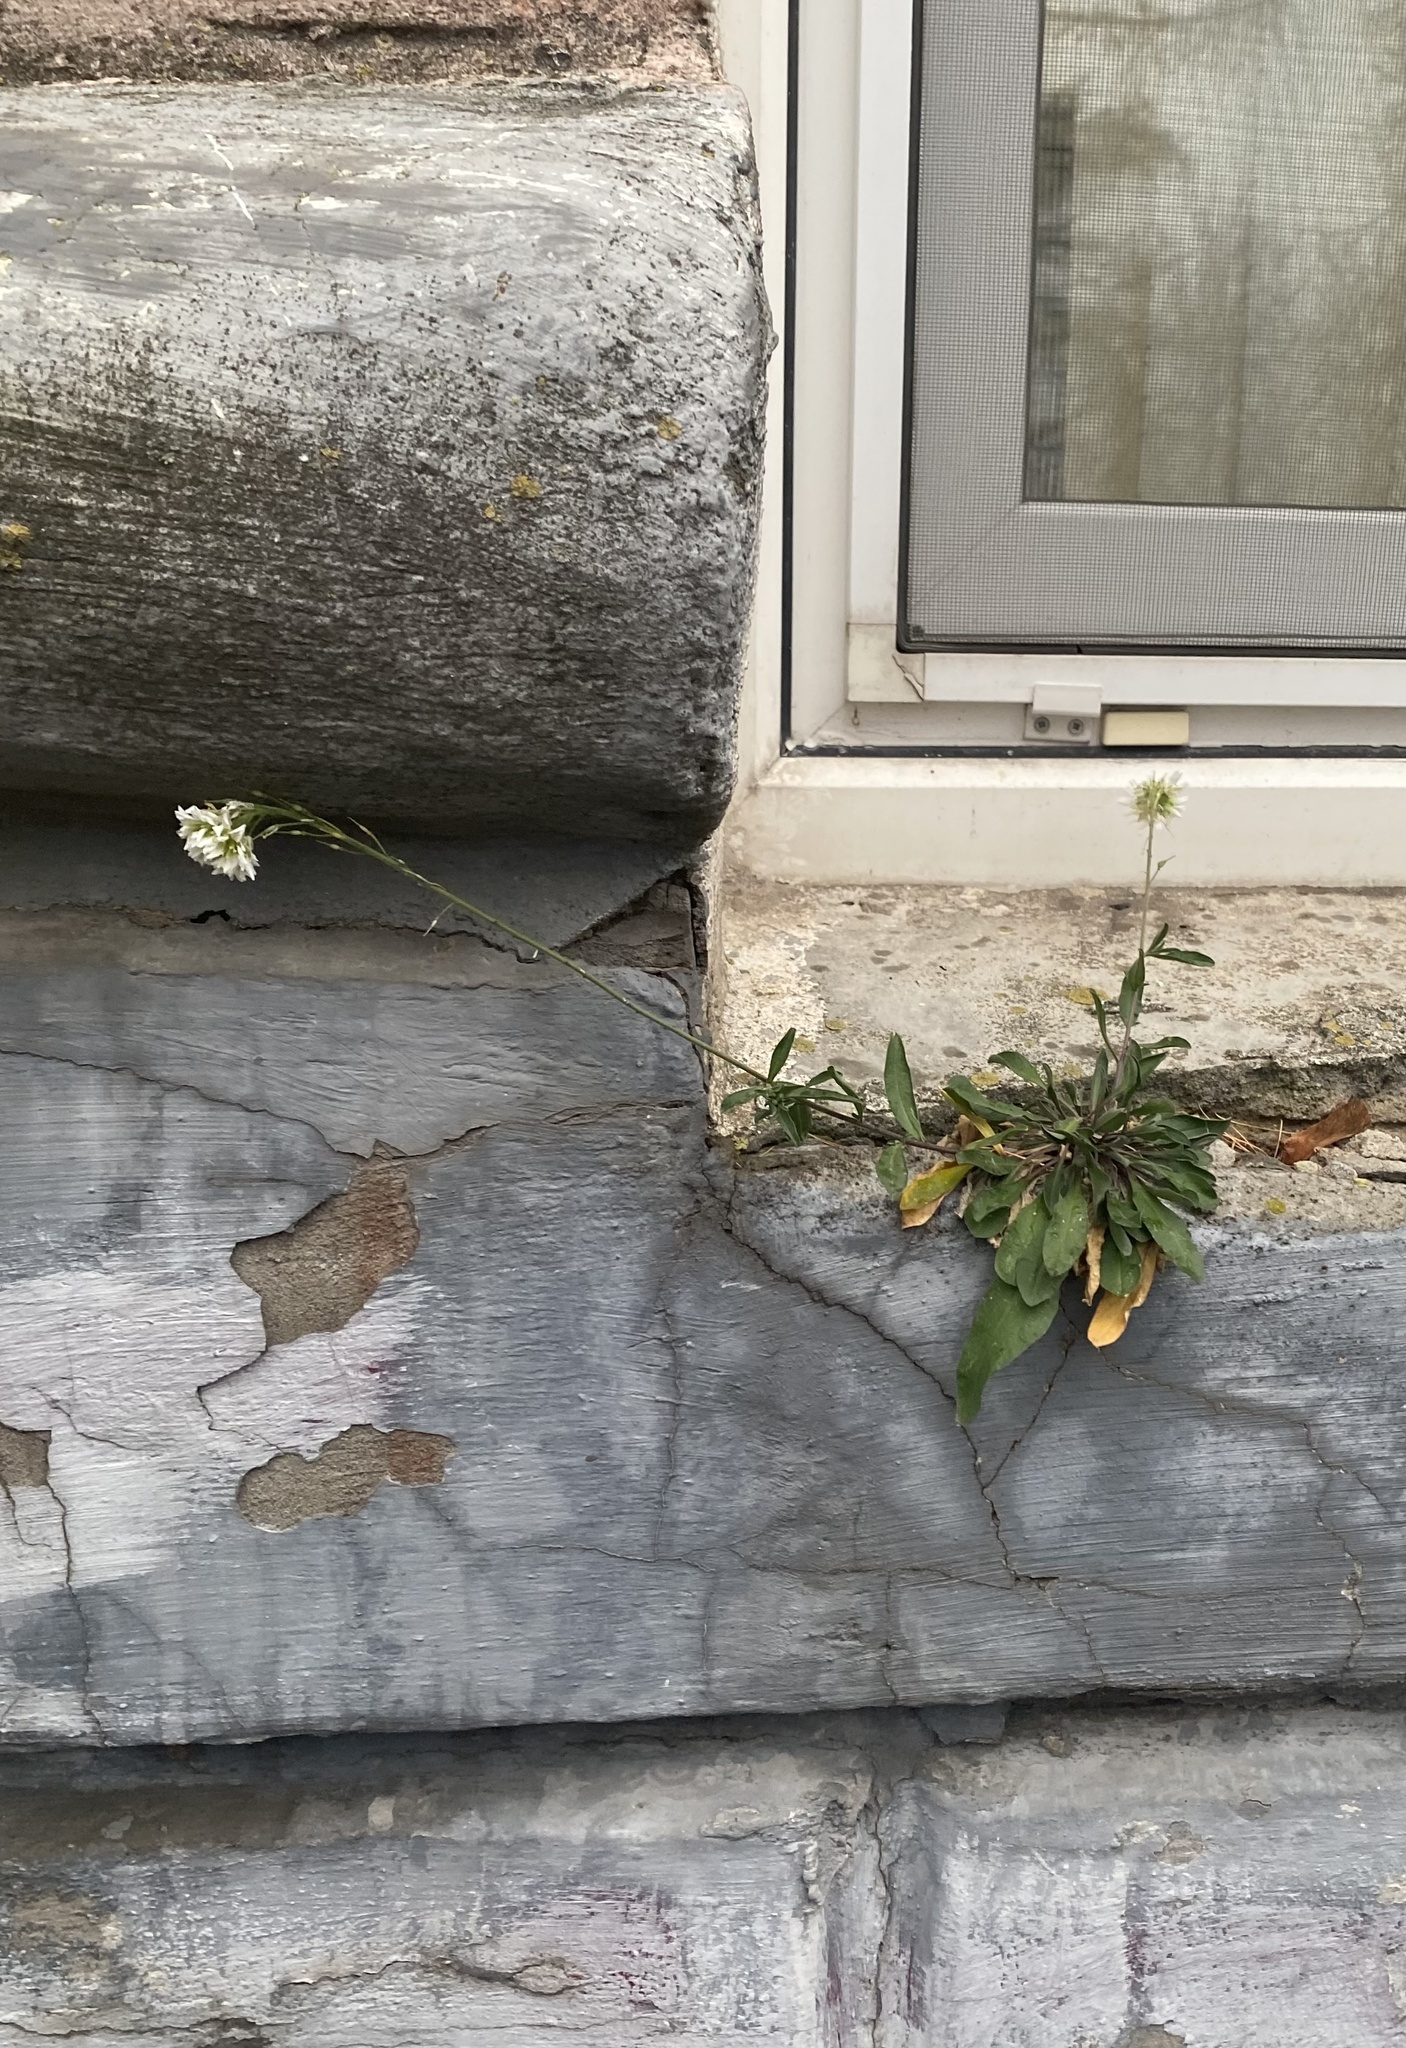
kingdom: Plantae
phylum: Tracheophyta
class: Magnoliopsida
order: Brassicales
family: Brassicaceae
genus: Berteroa
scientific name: Berteroa incana
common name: Hoary alison
